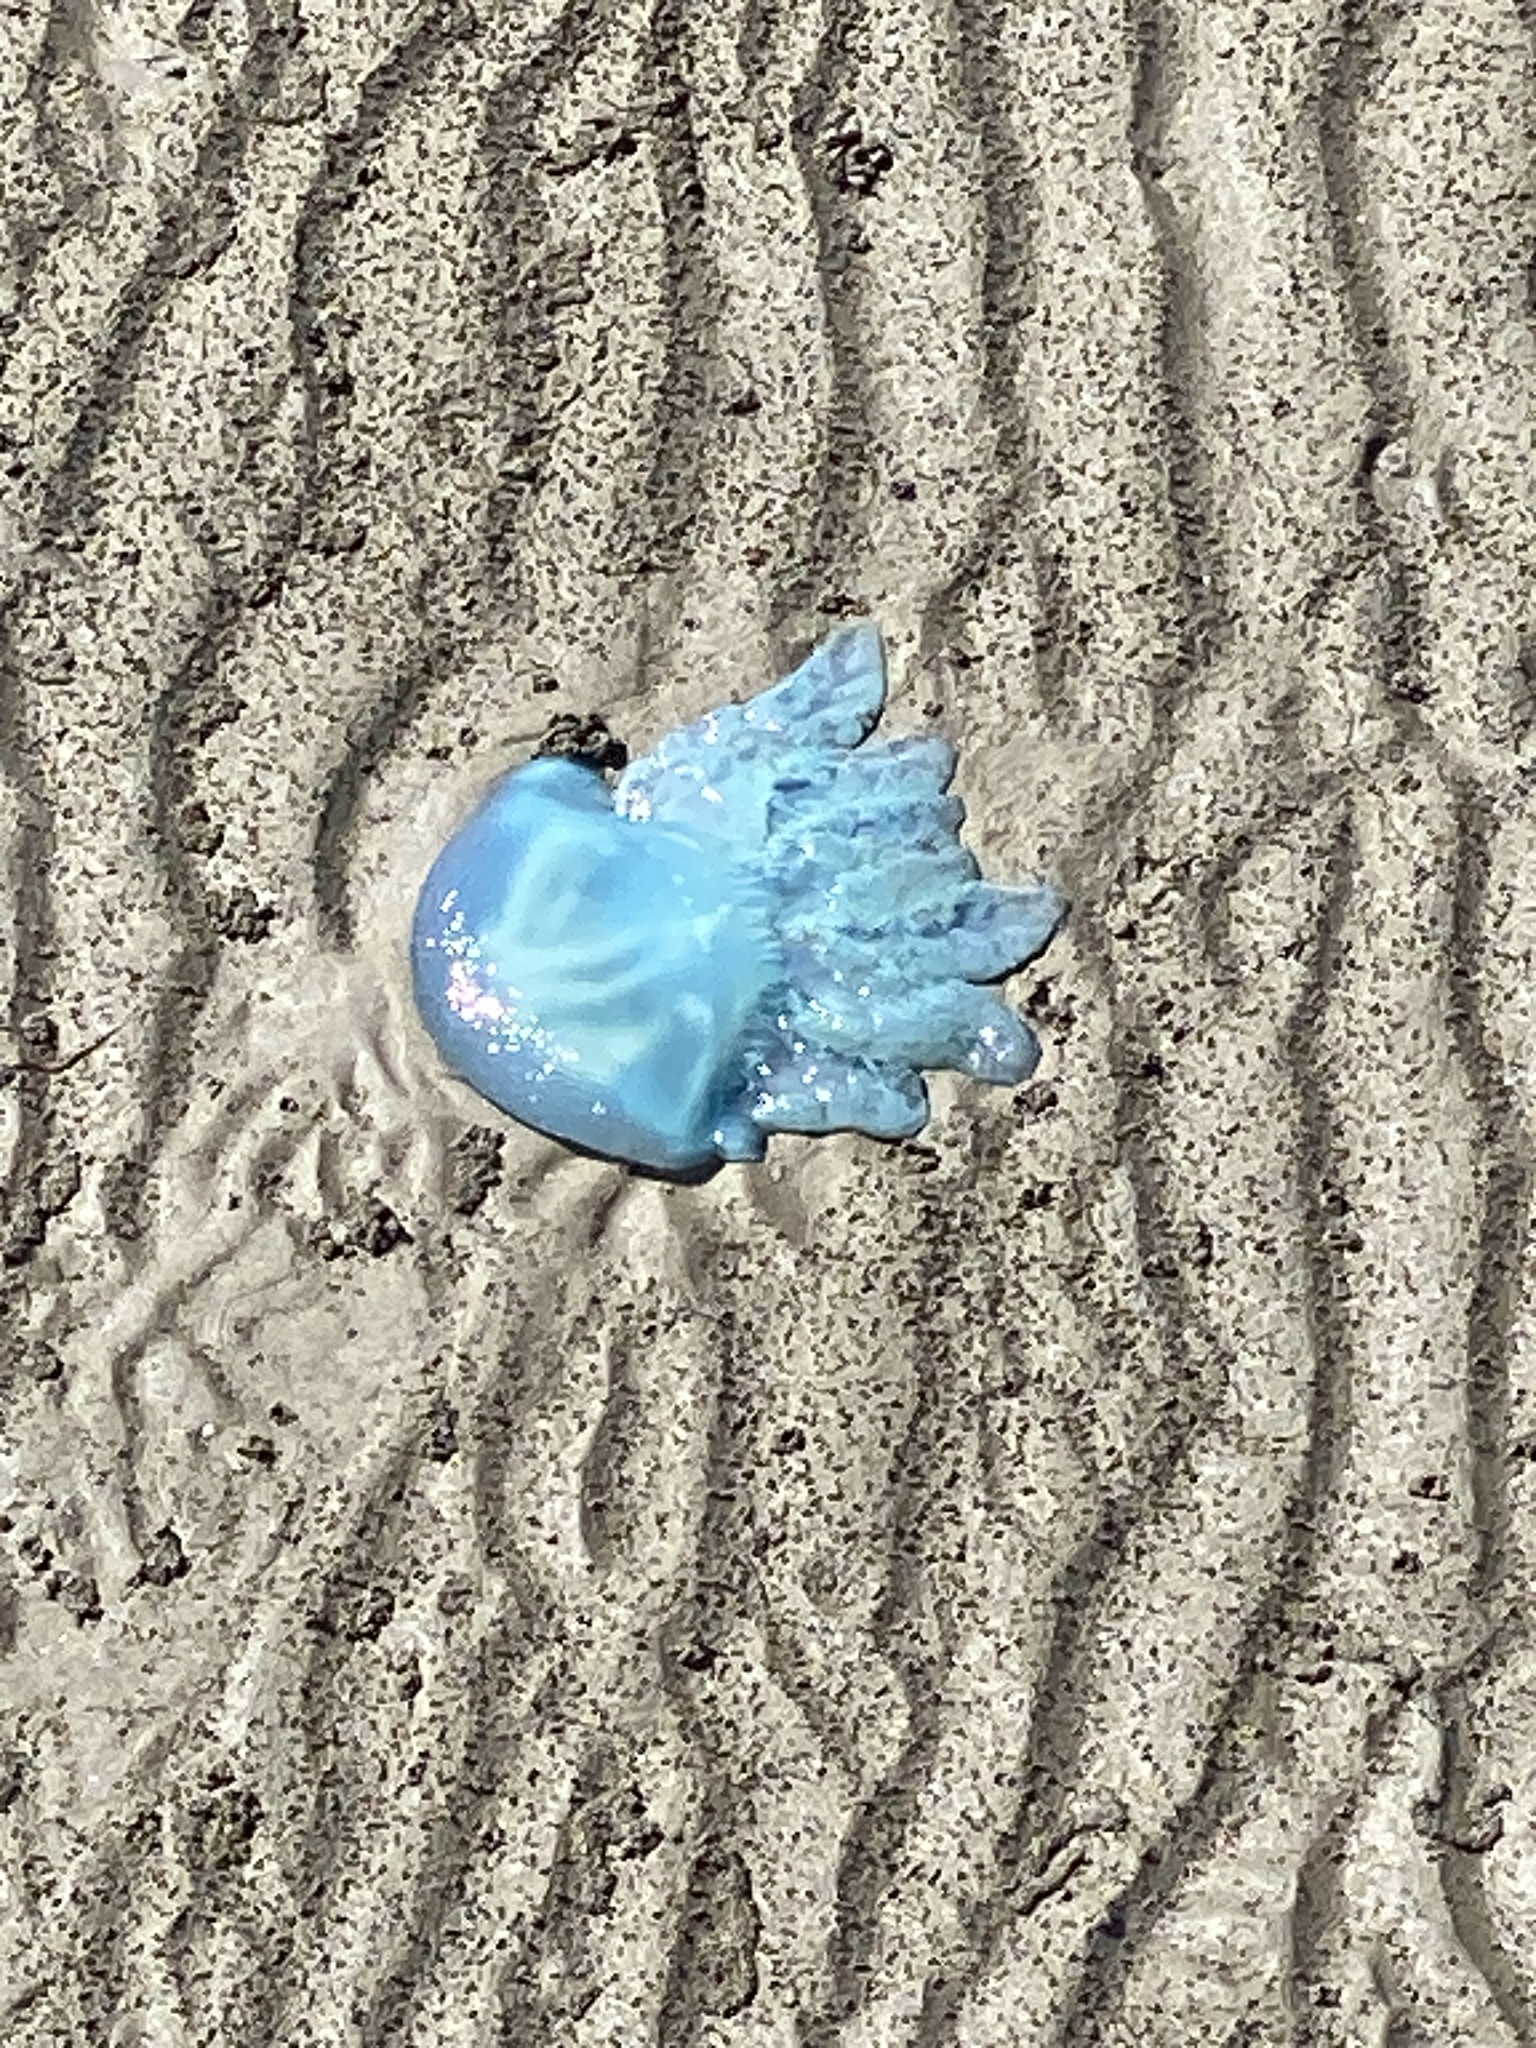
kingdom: Animalia
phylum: Cnidaria
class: Scyphozoa
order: Rhizostomeae
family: Catostylidae
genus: Catostylus
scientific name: Catostylus mosaicus
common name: Blue blubber
